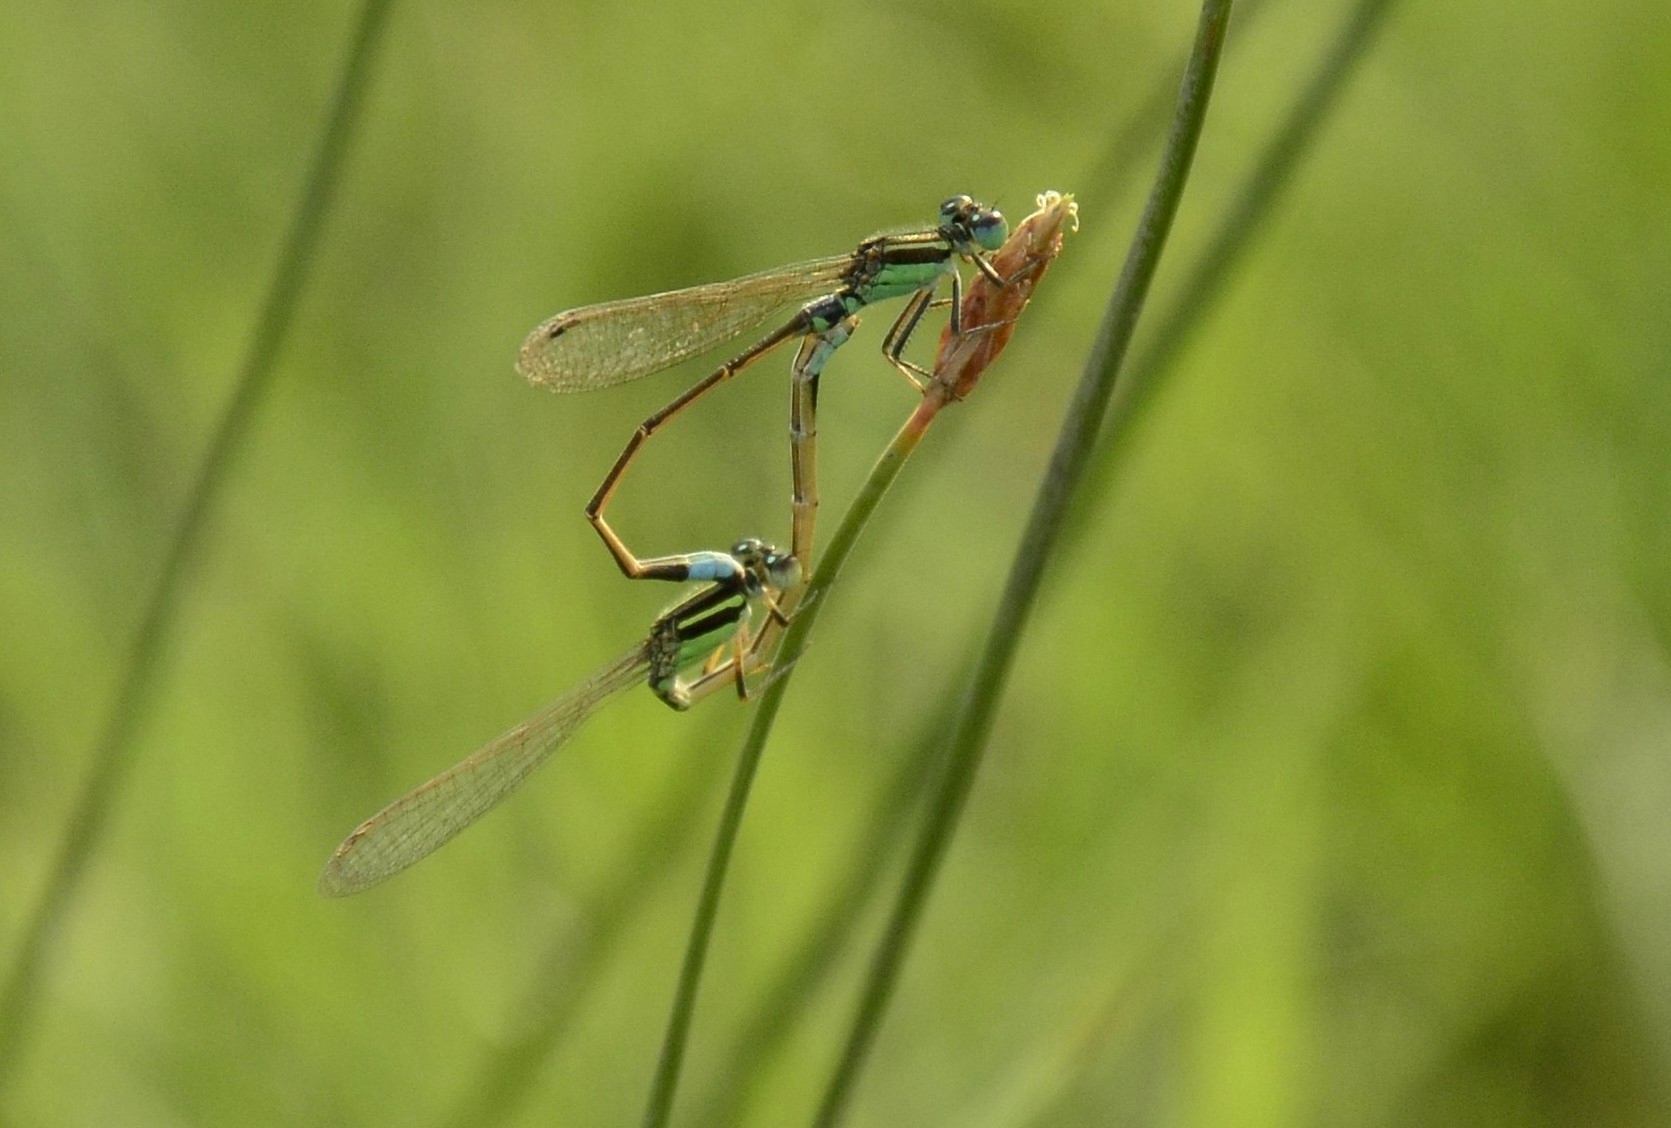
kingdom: Animalia
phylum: Arthropoda
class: Insecta
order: Odonata
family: Coenagrionidae
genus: Ischnura
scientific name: Ischnura senegalensis
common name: Tropical bluetail
